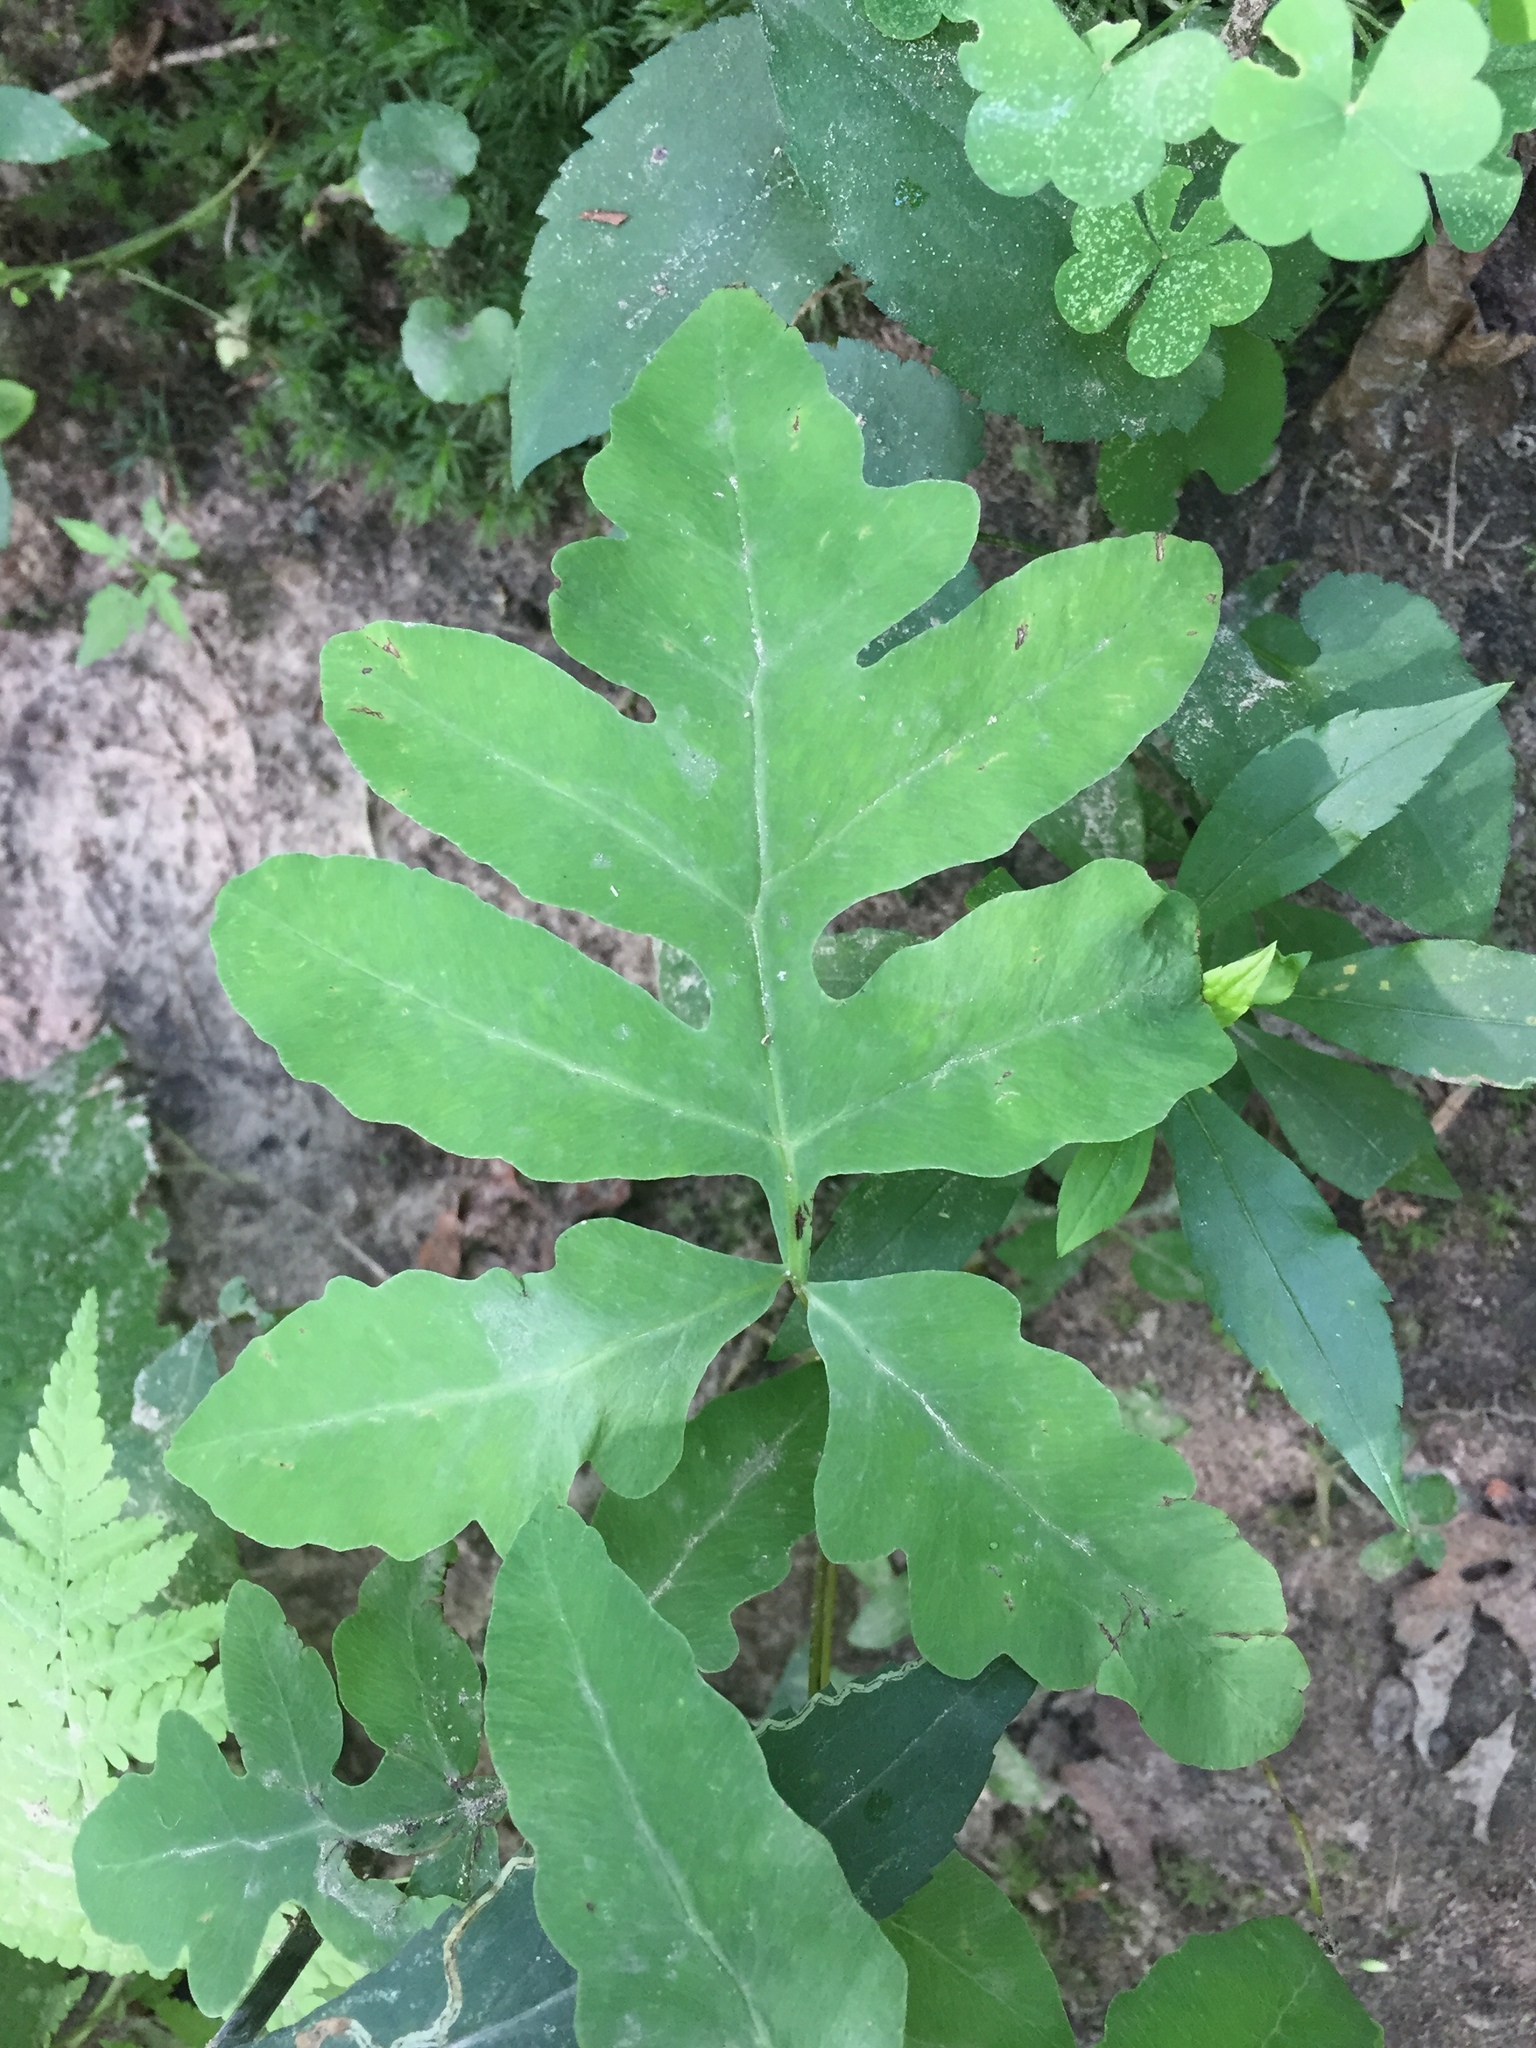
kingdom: Plantae
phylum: Tracheophyta
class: Polypodiopsida
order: Polypodiales
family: Onocleaceae
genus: Onoclea
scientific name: Onoclea sensibilis
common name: Sensitive fern
